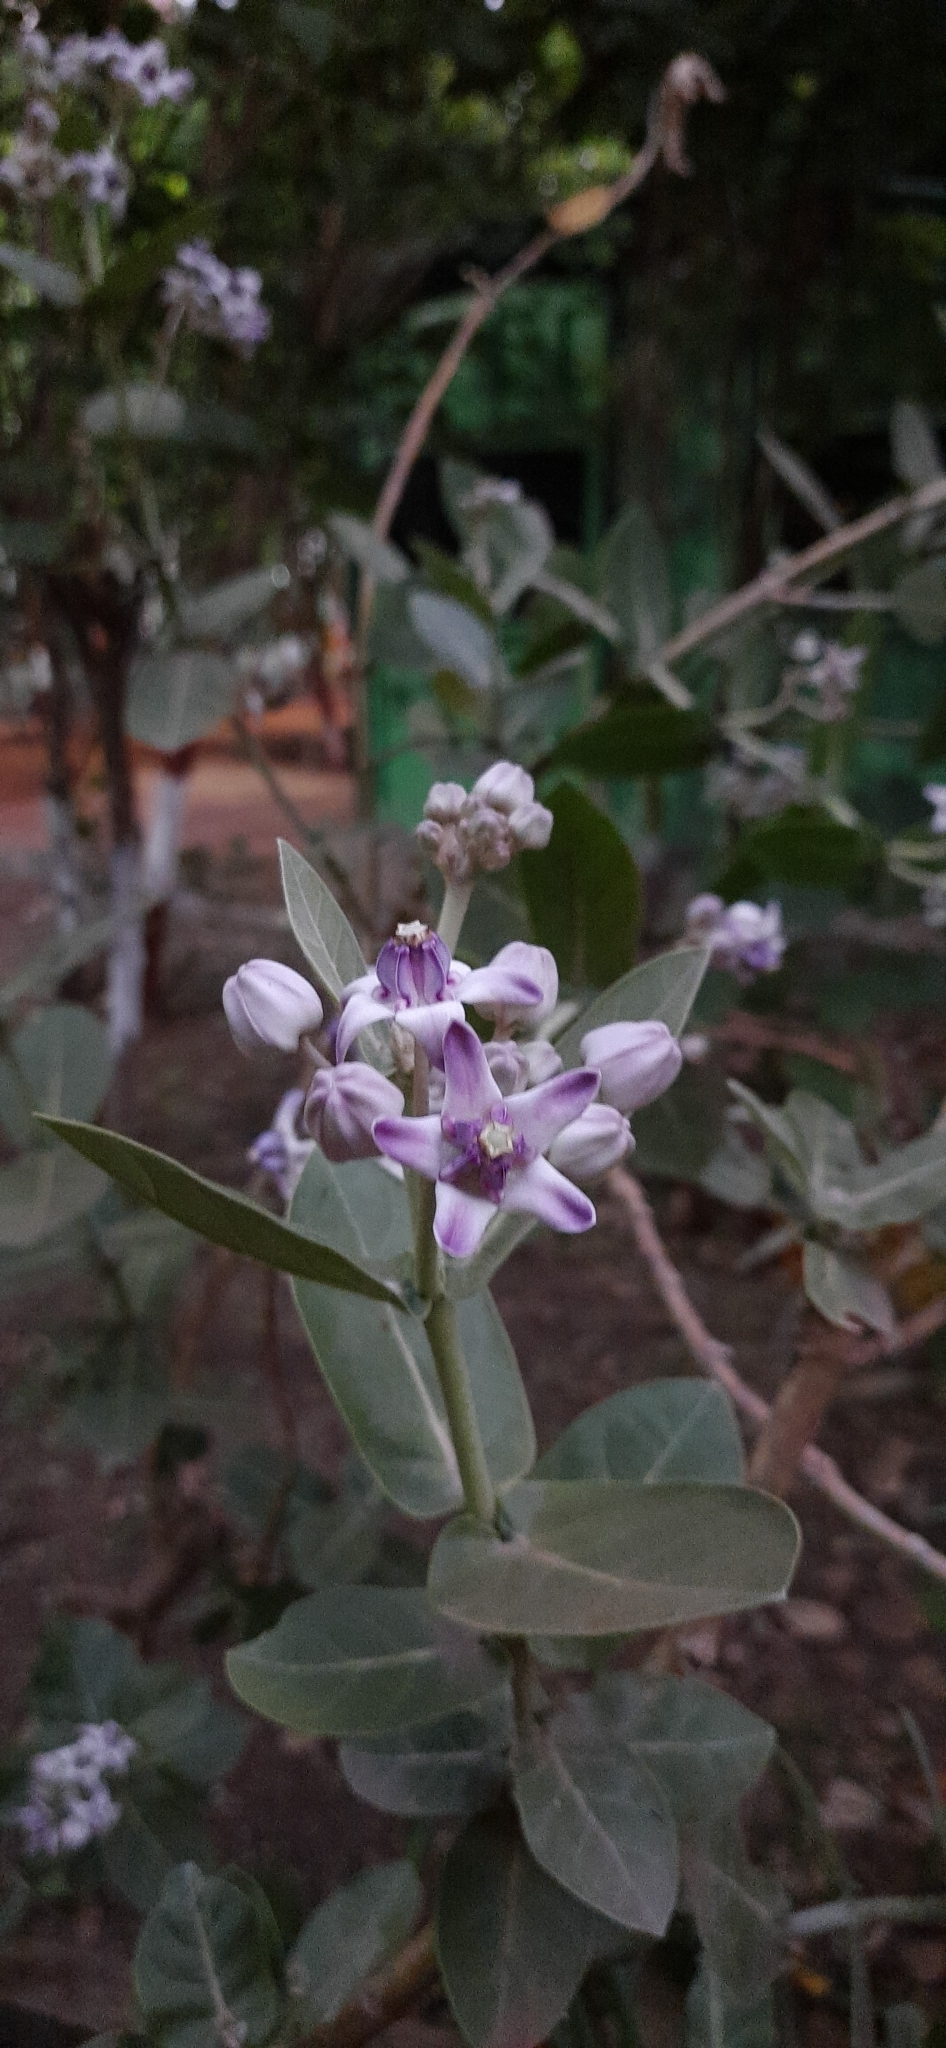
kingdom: Plantae
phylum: Tracheophyta
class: Magnoliopsida
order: Gentianales
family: Apocynaceae
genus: Calotropis
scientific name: Calotropis gigantea
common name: Crown flower
